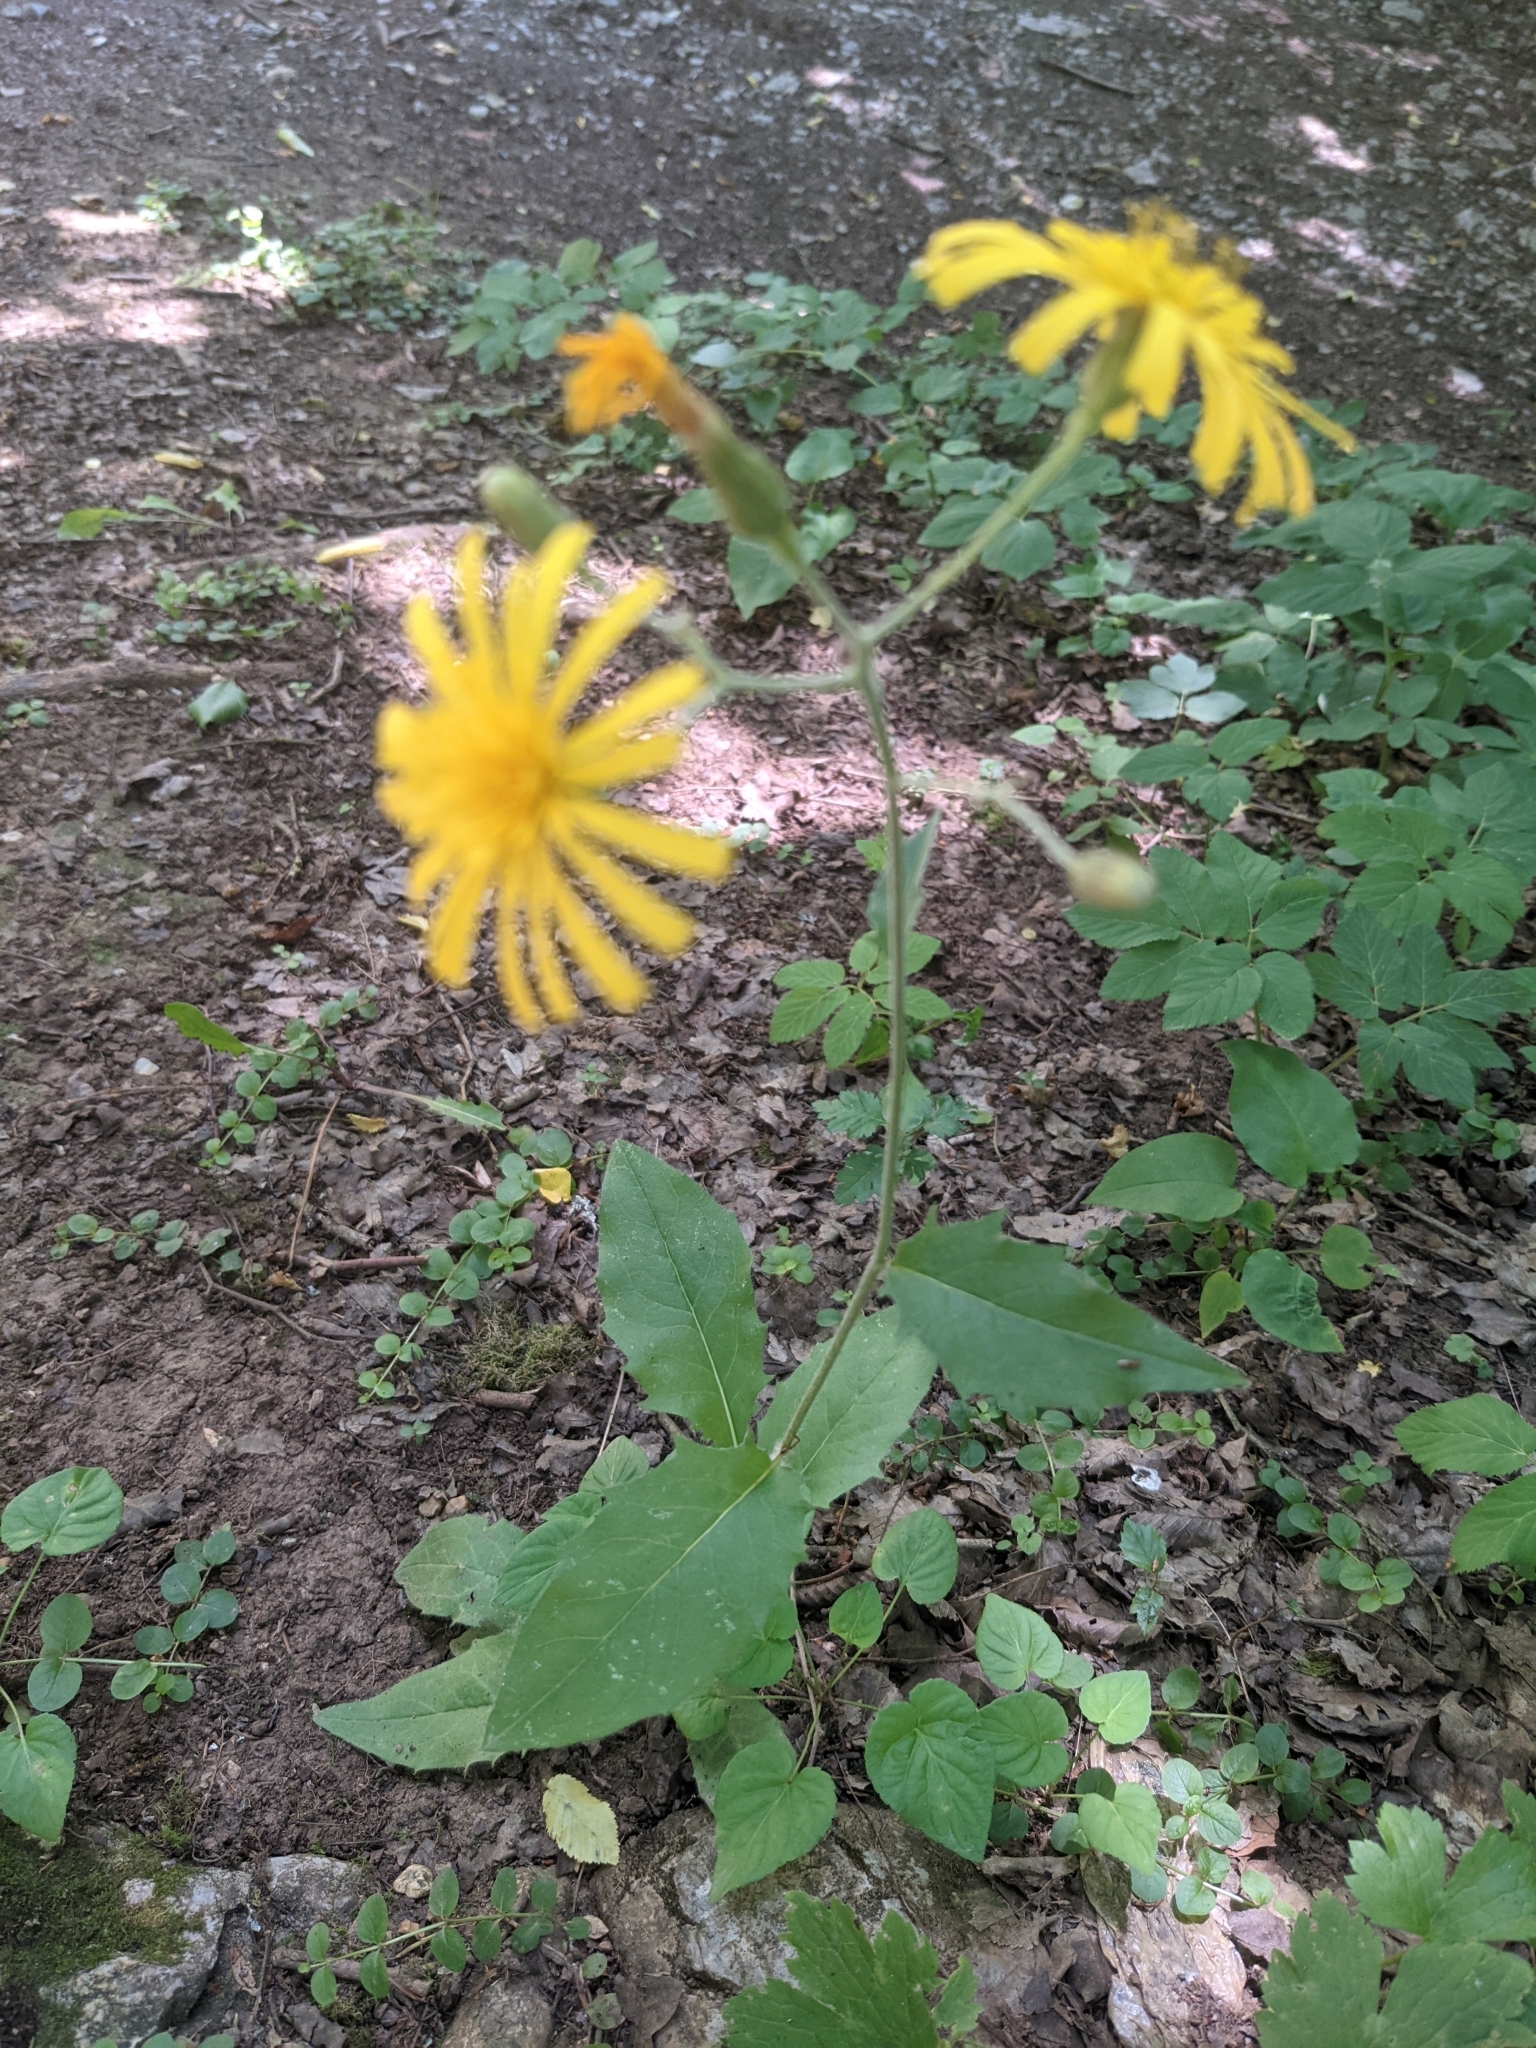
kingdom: Plantae
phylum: Tracheophyta
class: Magnoliopsida
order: Asterales
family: Asteraceae
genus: Hieracium
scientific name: Hieracium murorum
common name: Wall hawkweed
